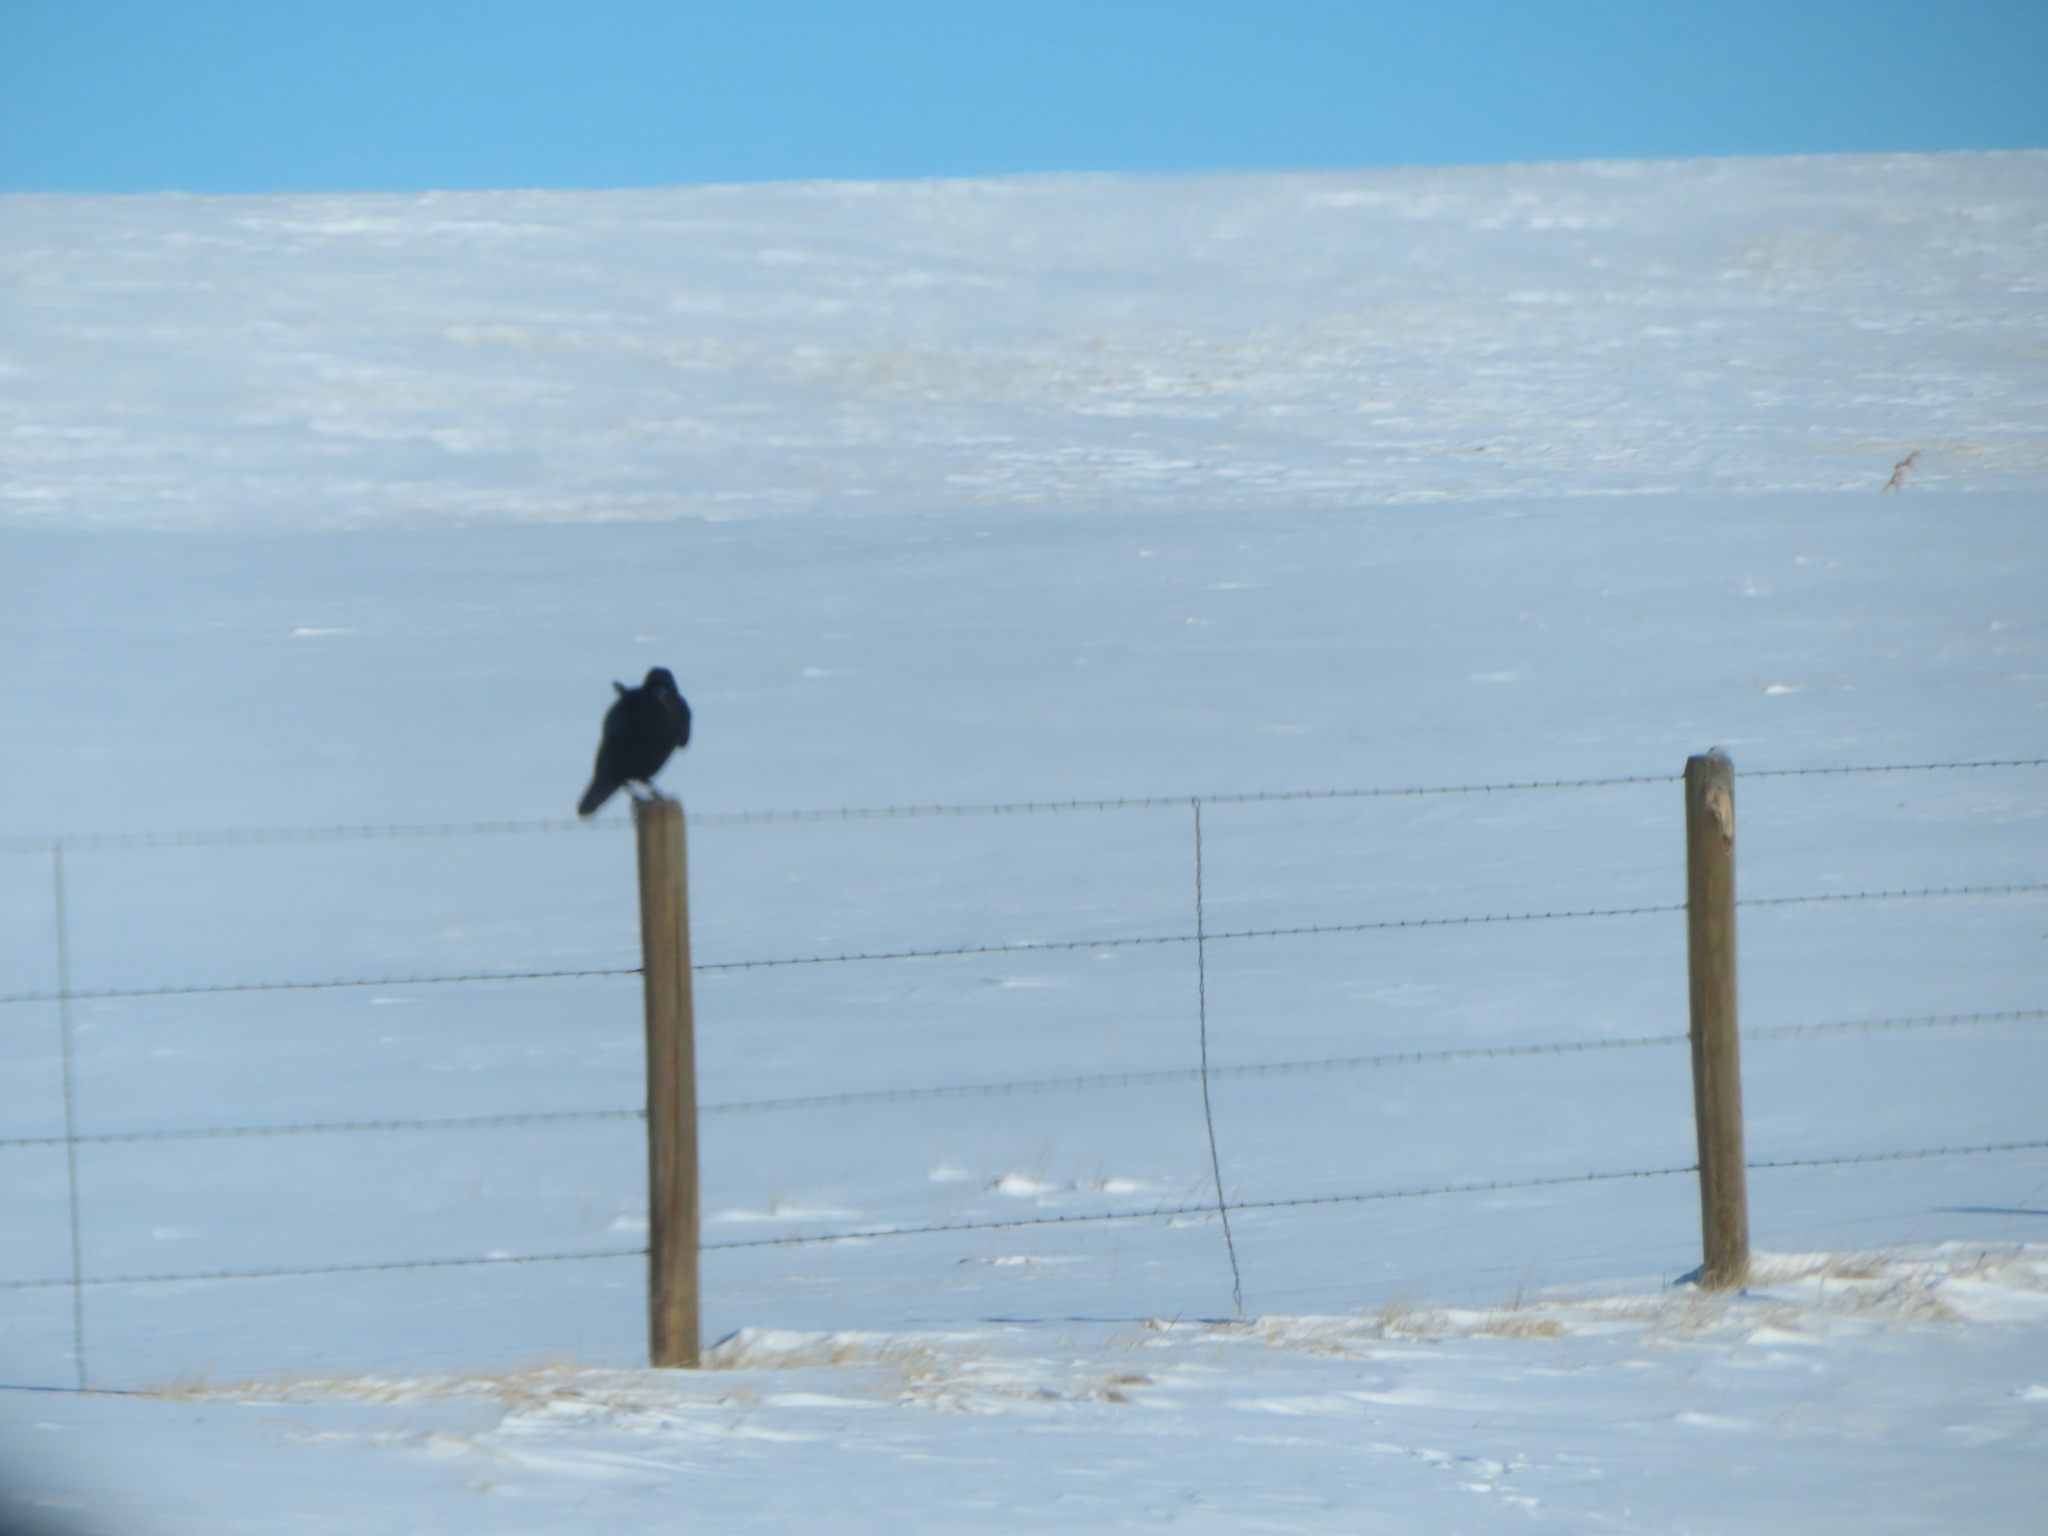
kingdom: Animalia
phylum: Chordata
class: Aves
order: Passeriformes
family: Corvidae
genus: Corvus
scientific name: Corvus corax
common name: Common raven
